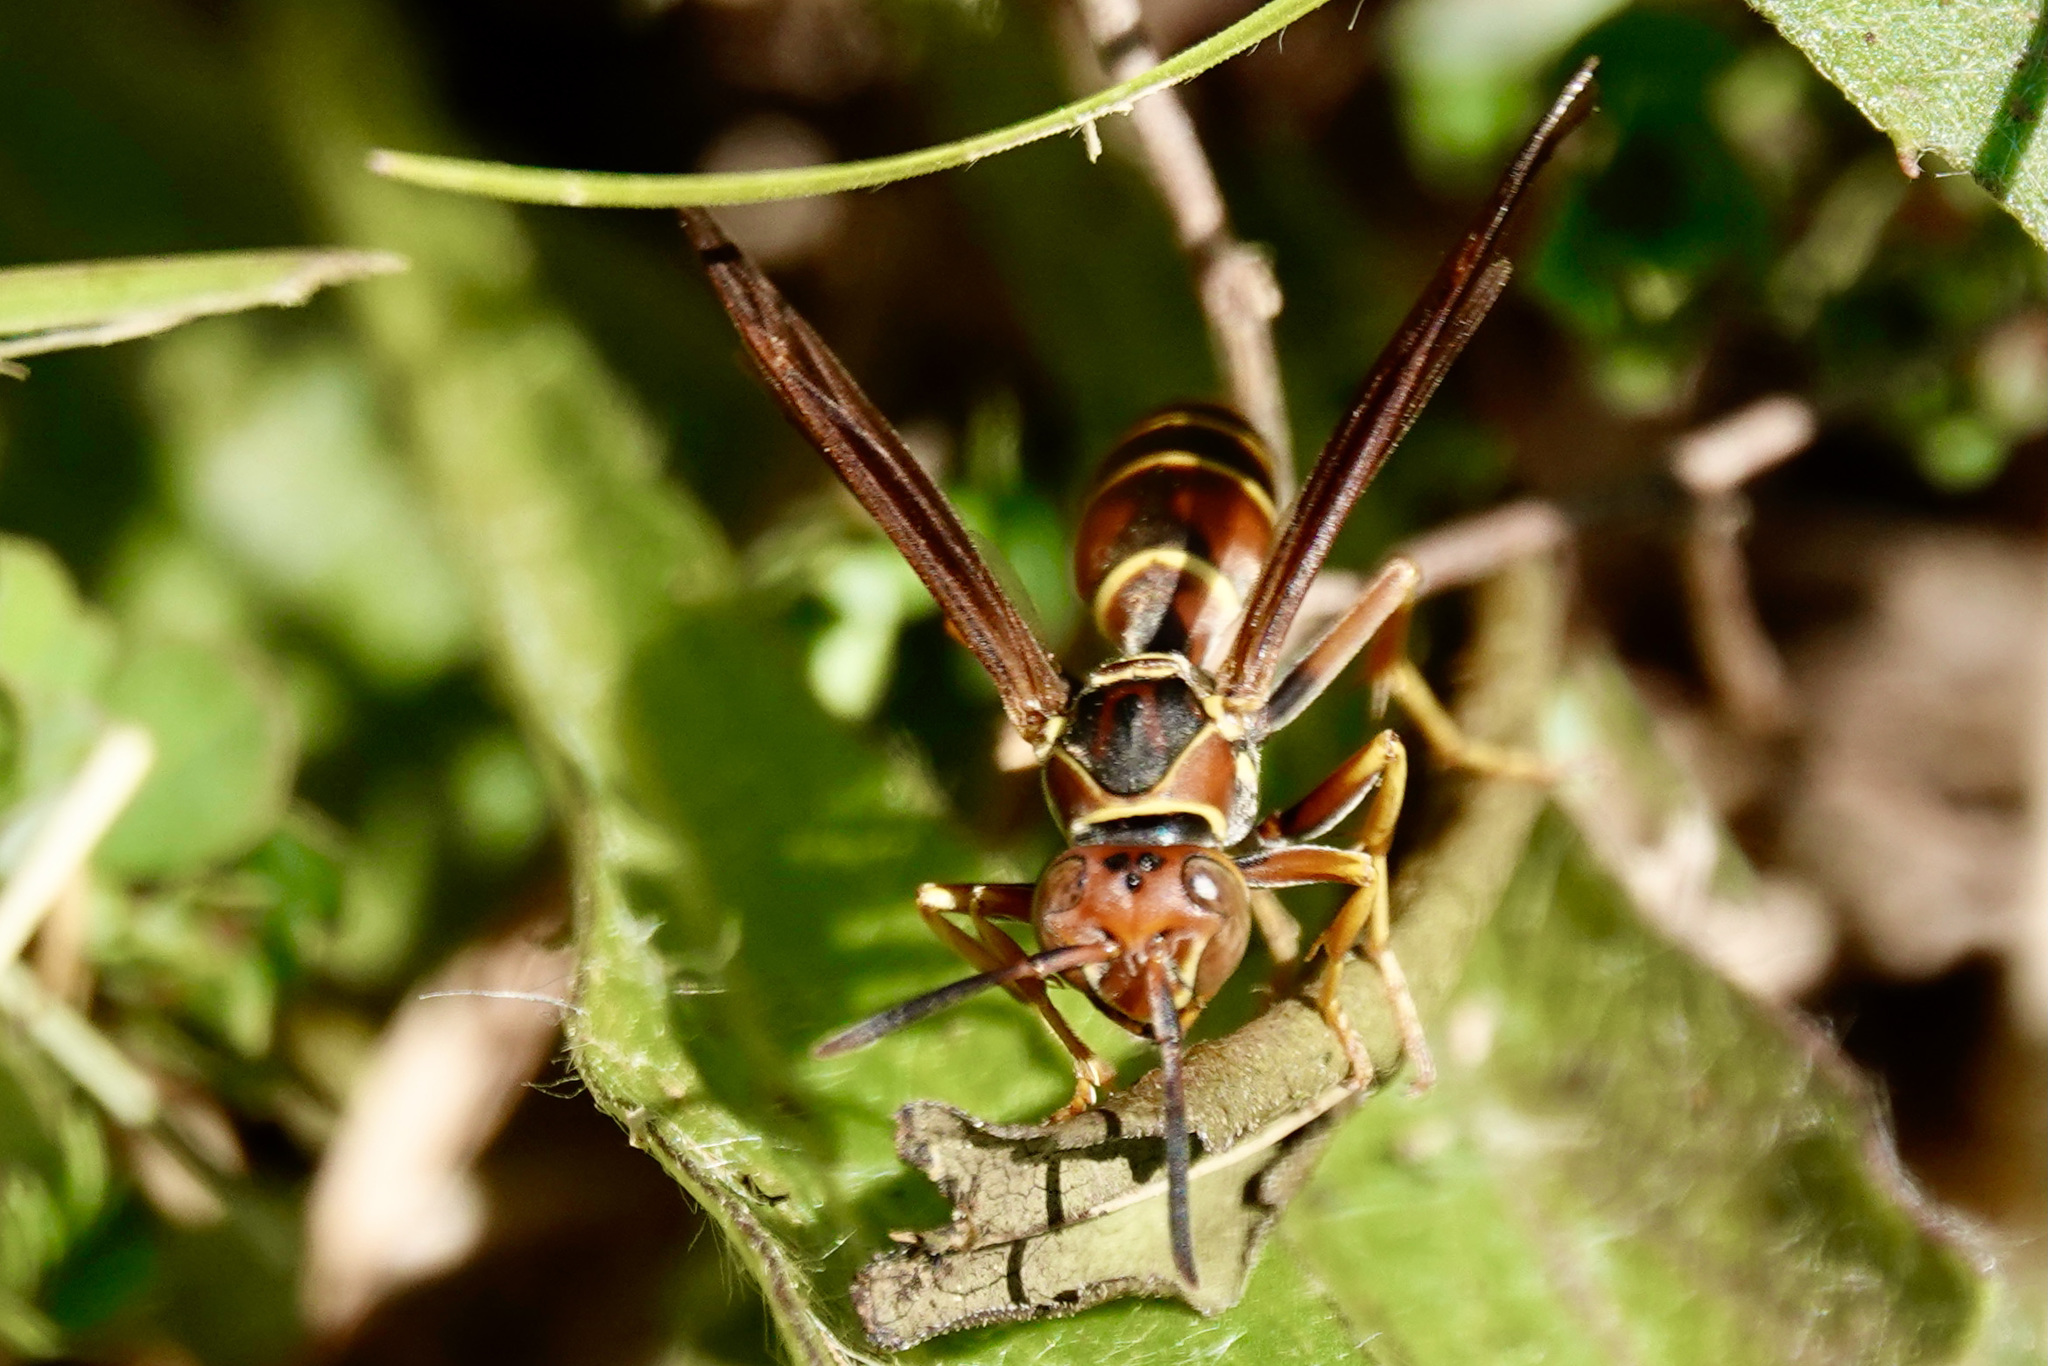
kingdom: Animalia
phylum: Arthropoda
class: Insecta
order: Hymenoptera
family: Eumenidae
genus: Polistes
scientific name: Polistes dorsalis
